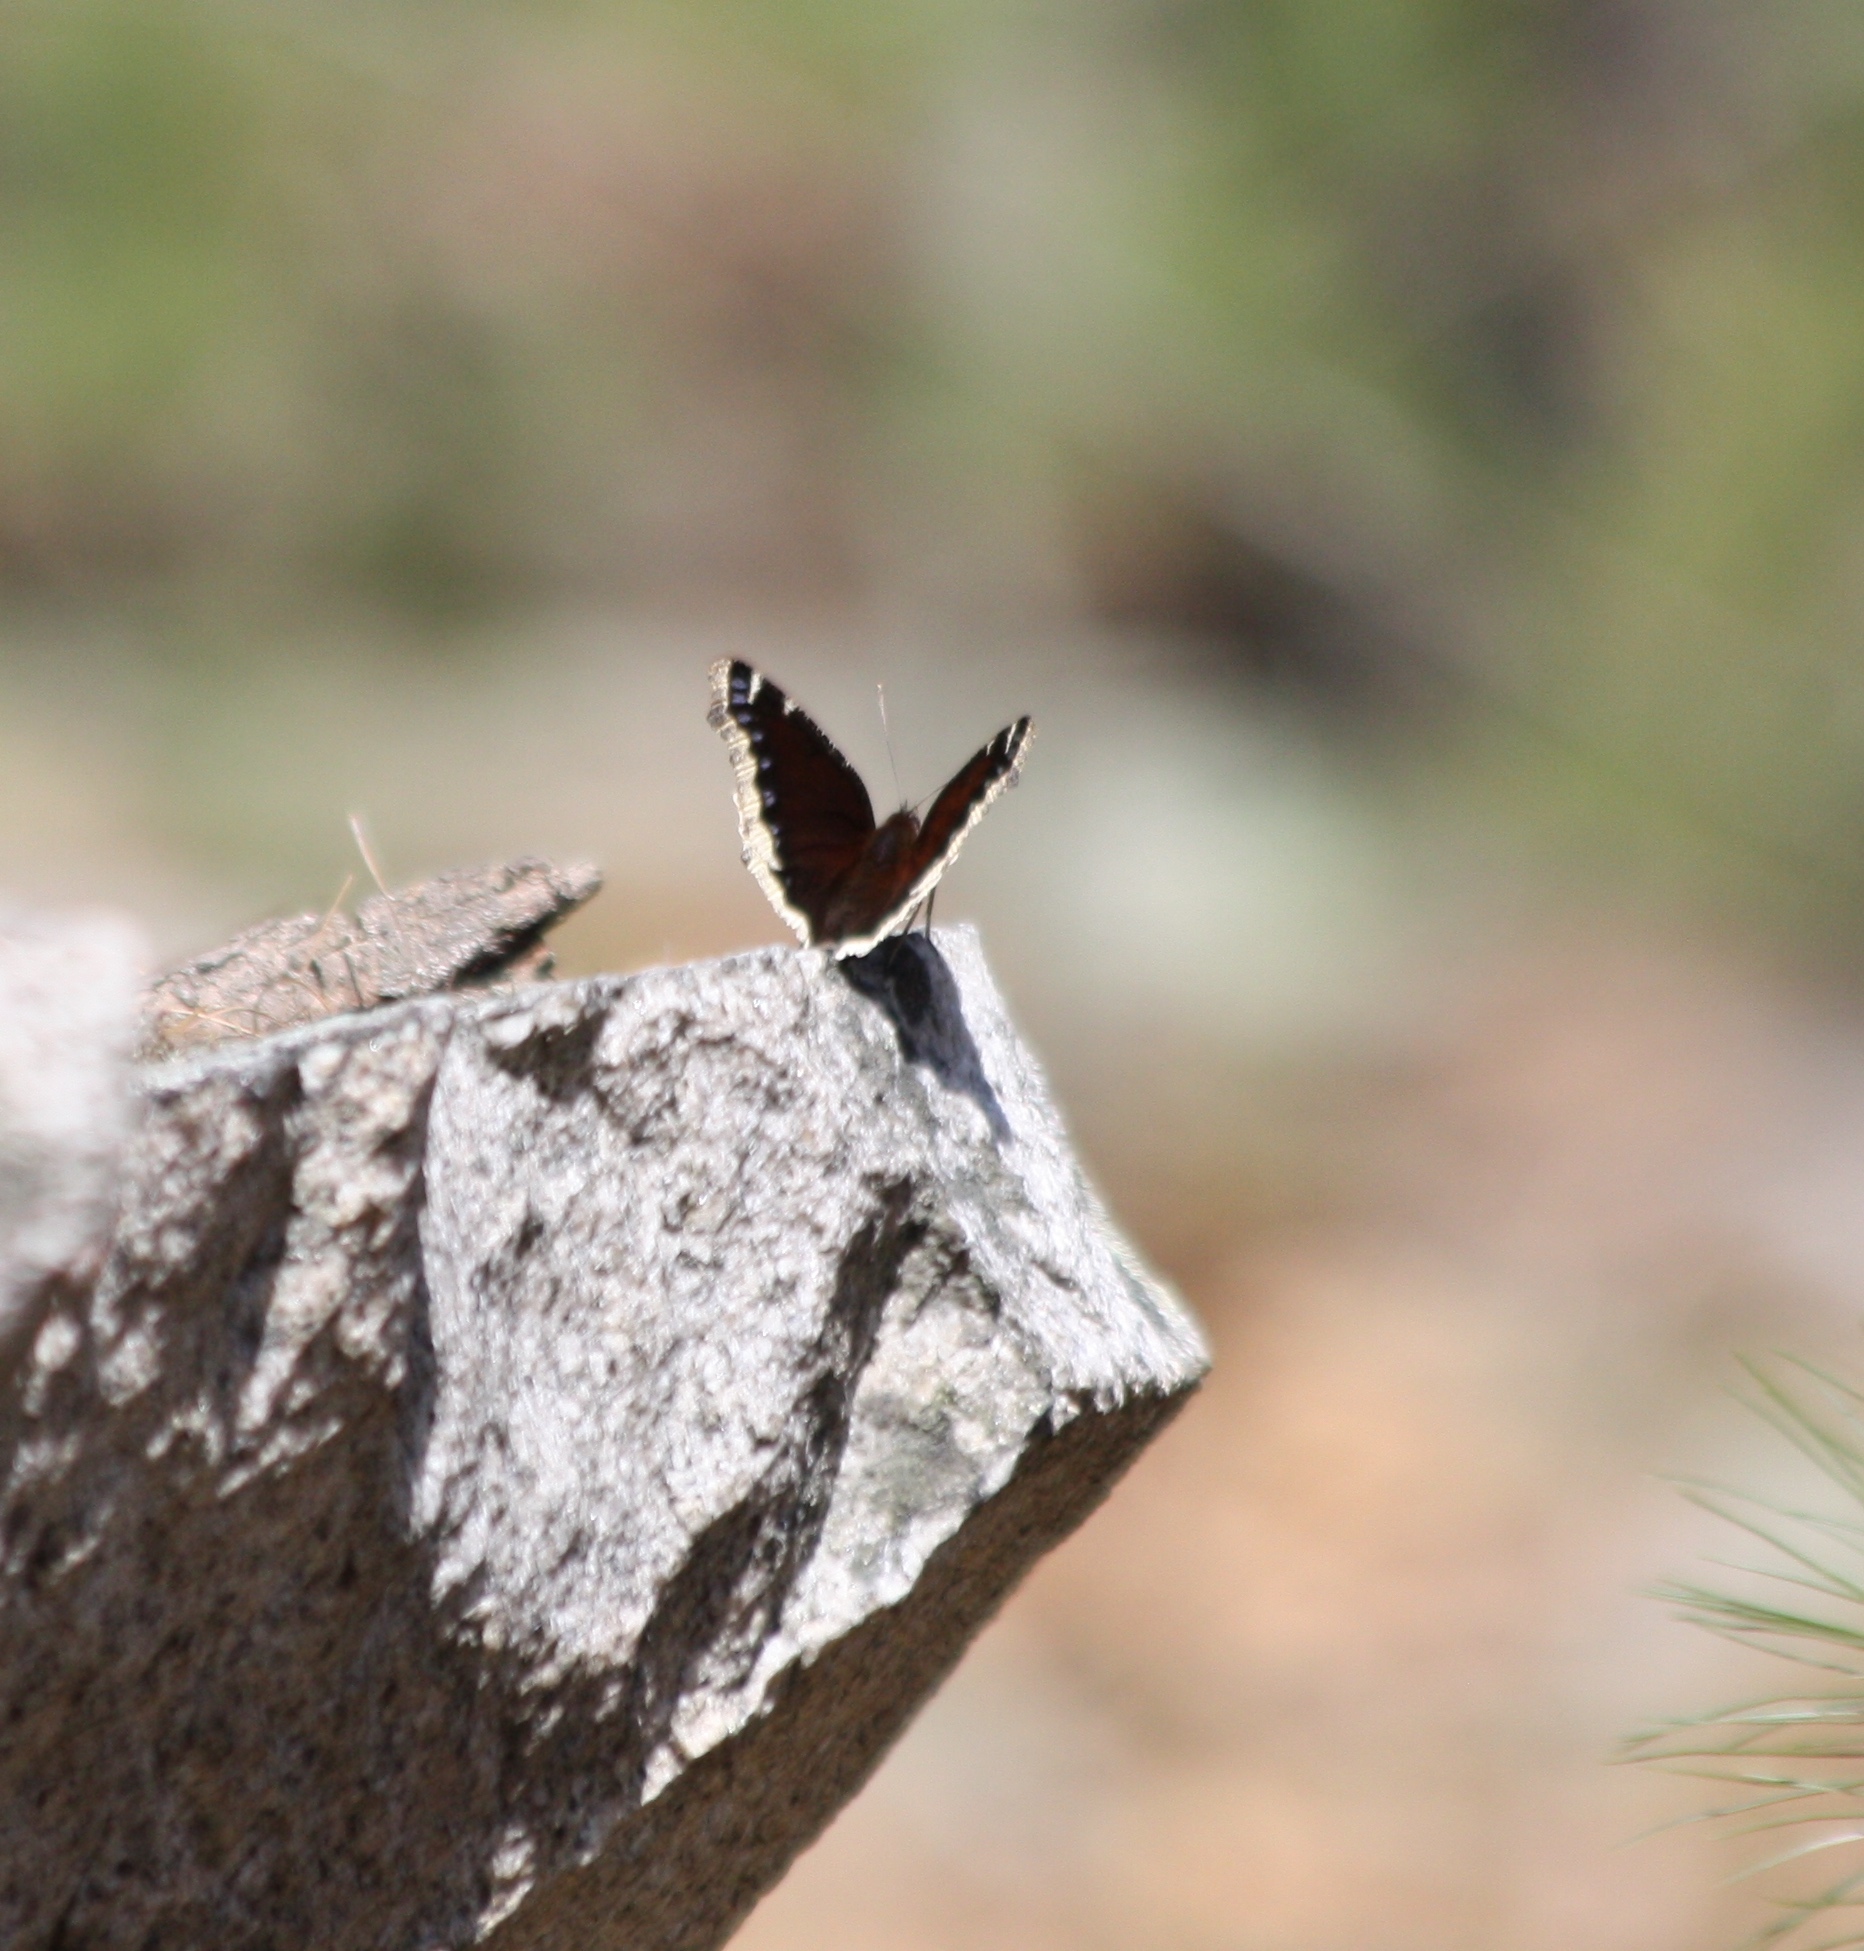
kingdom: Animalia
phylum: Arthropoda
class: Insecta
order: Lepidoptera
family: Nymphalidae
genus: Nymphalis
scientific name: Nymphalis antiopa
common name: Camberwell beauty
